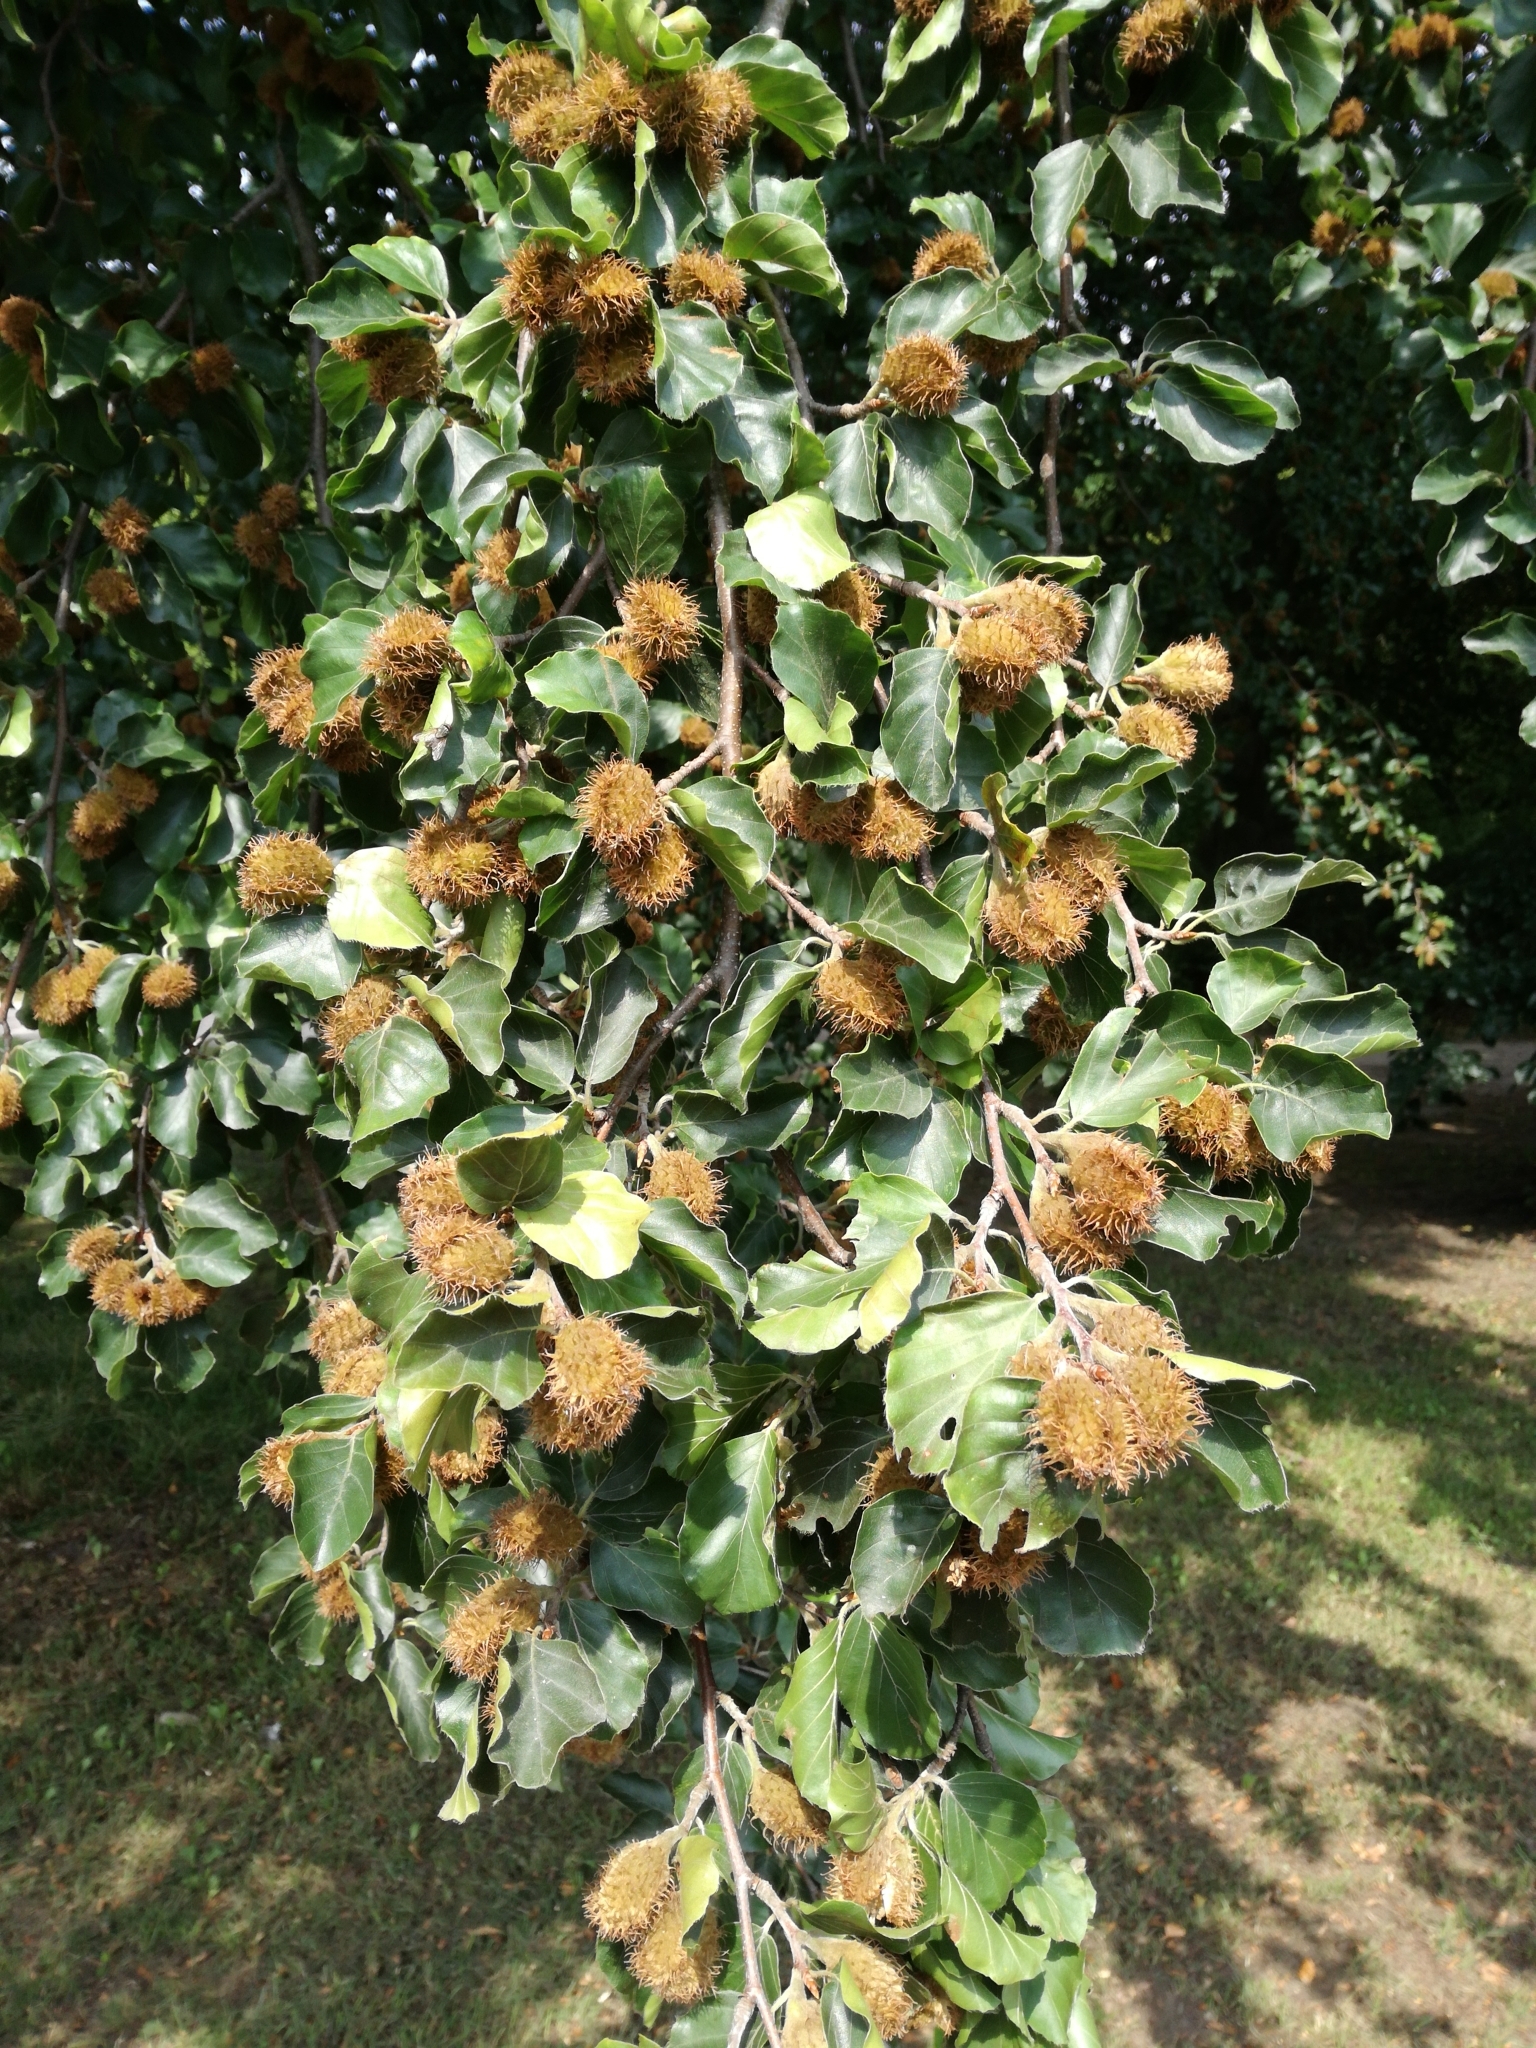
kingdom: Plantae
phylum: Tracheophyta
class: Magnoliopsida
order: Fagales
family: Fagaceae
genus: Fagus
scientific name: Fagus sylvatica
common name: Beech
